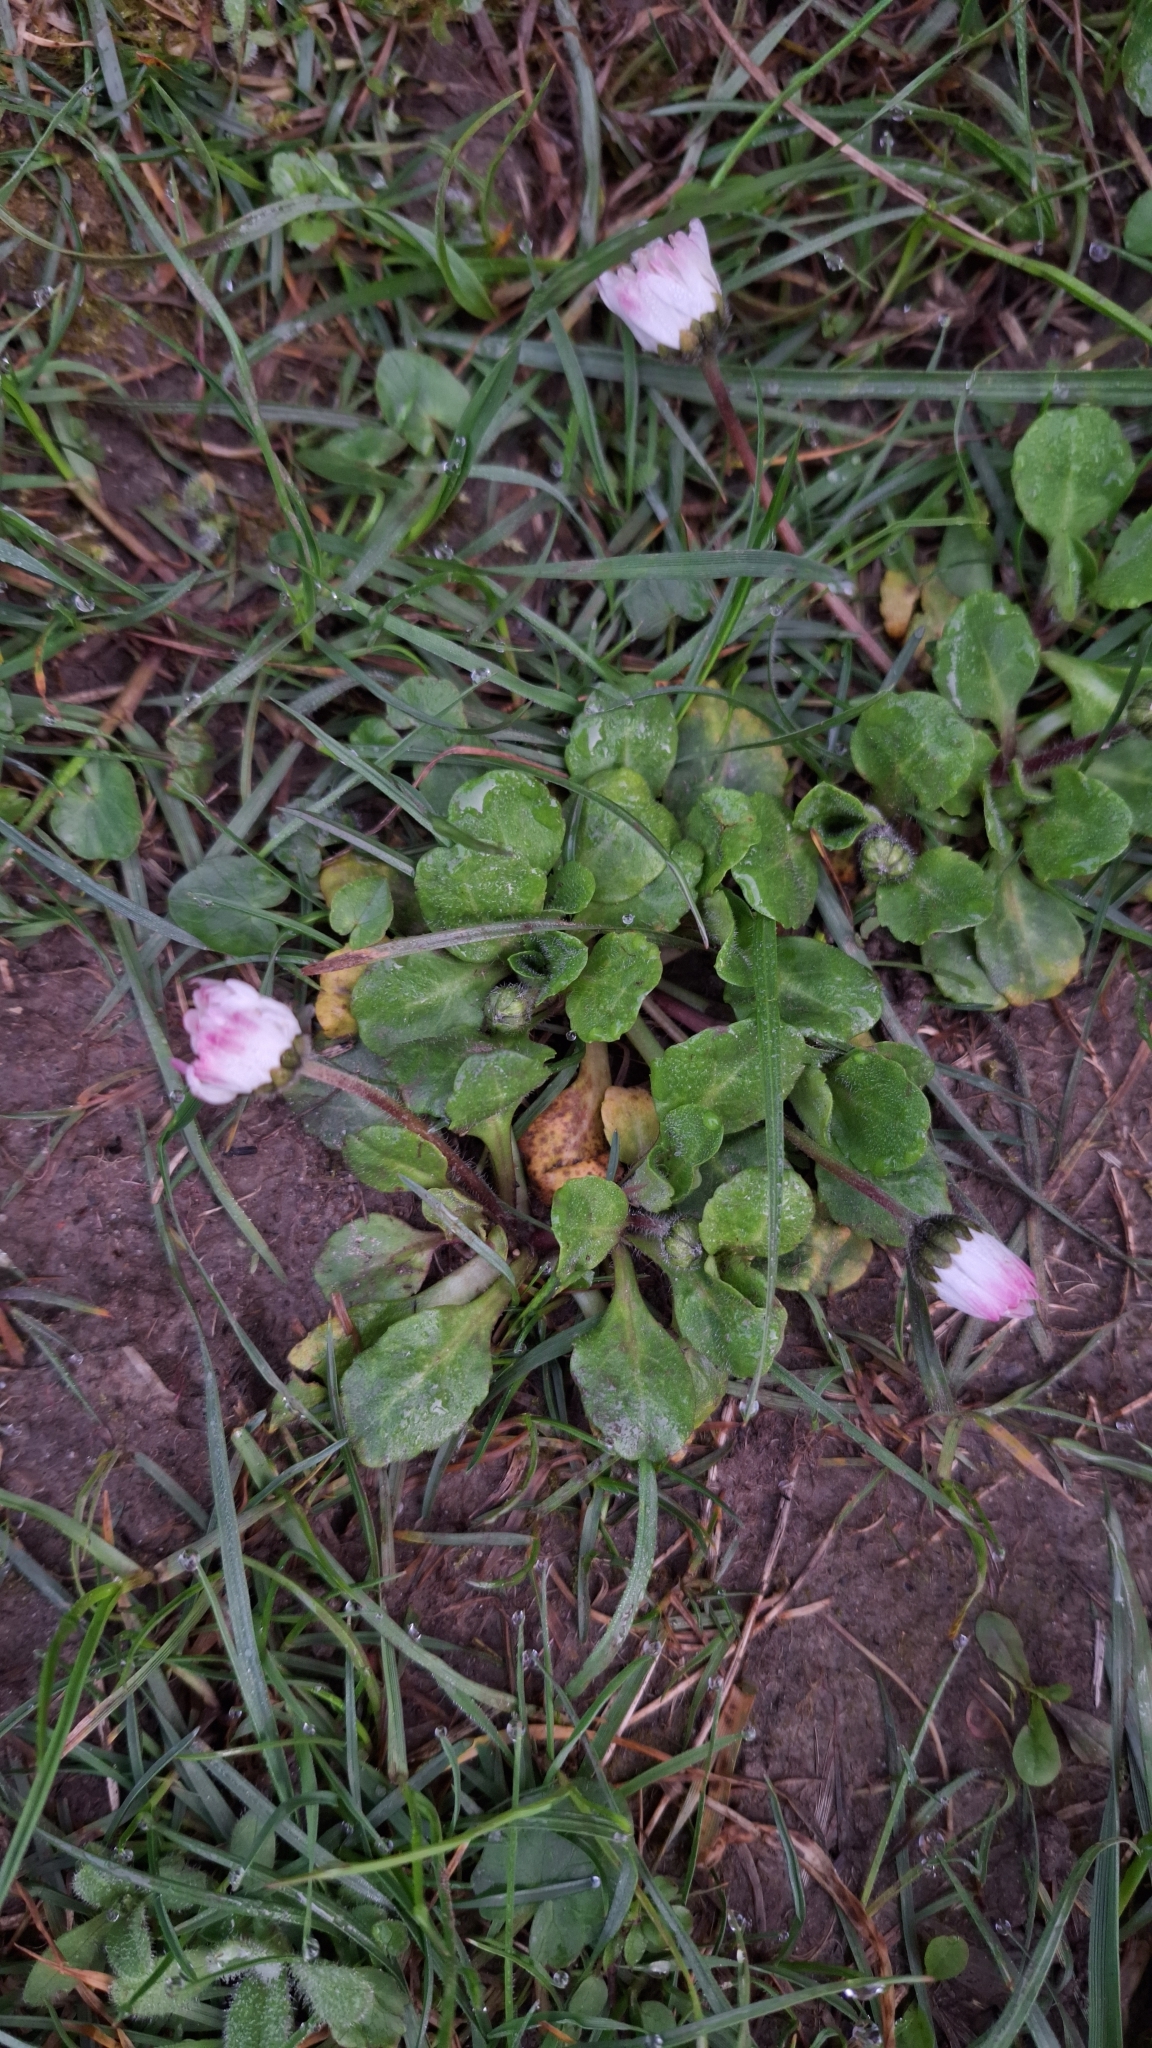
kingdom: Plantae
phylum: Tracheophyta
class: Magnoliopsida
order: Asterales
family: Asteraceae
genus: Bellis
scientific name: Bellis perennis
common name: Lawndaisy
